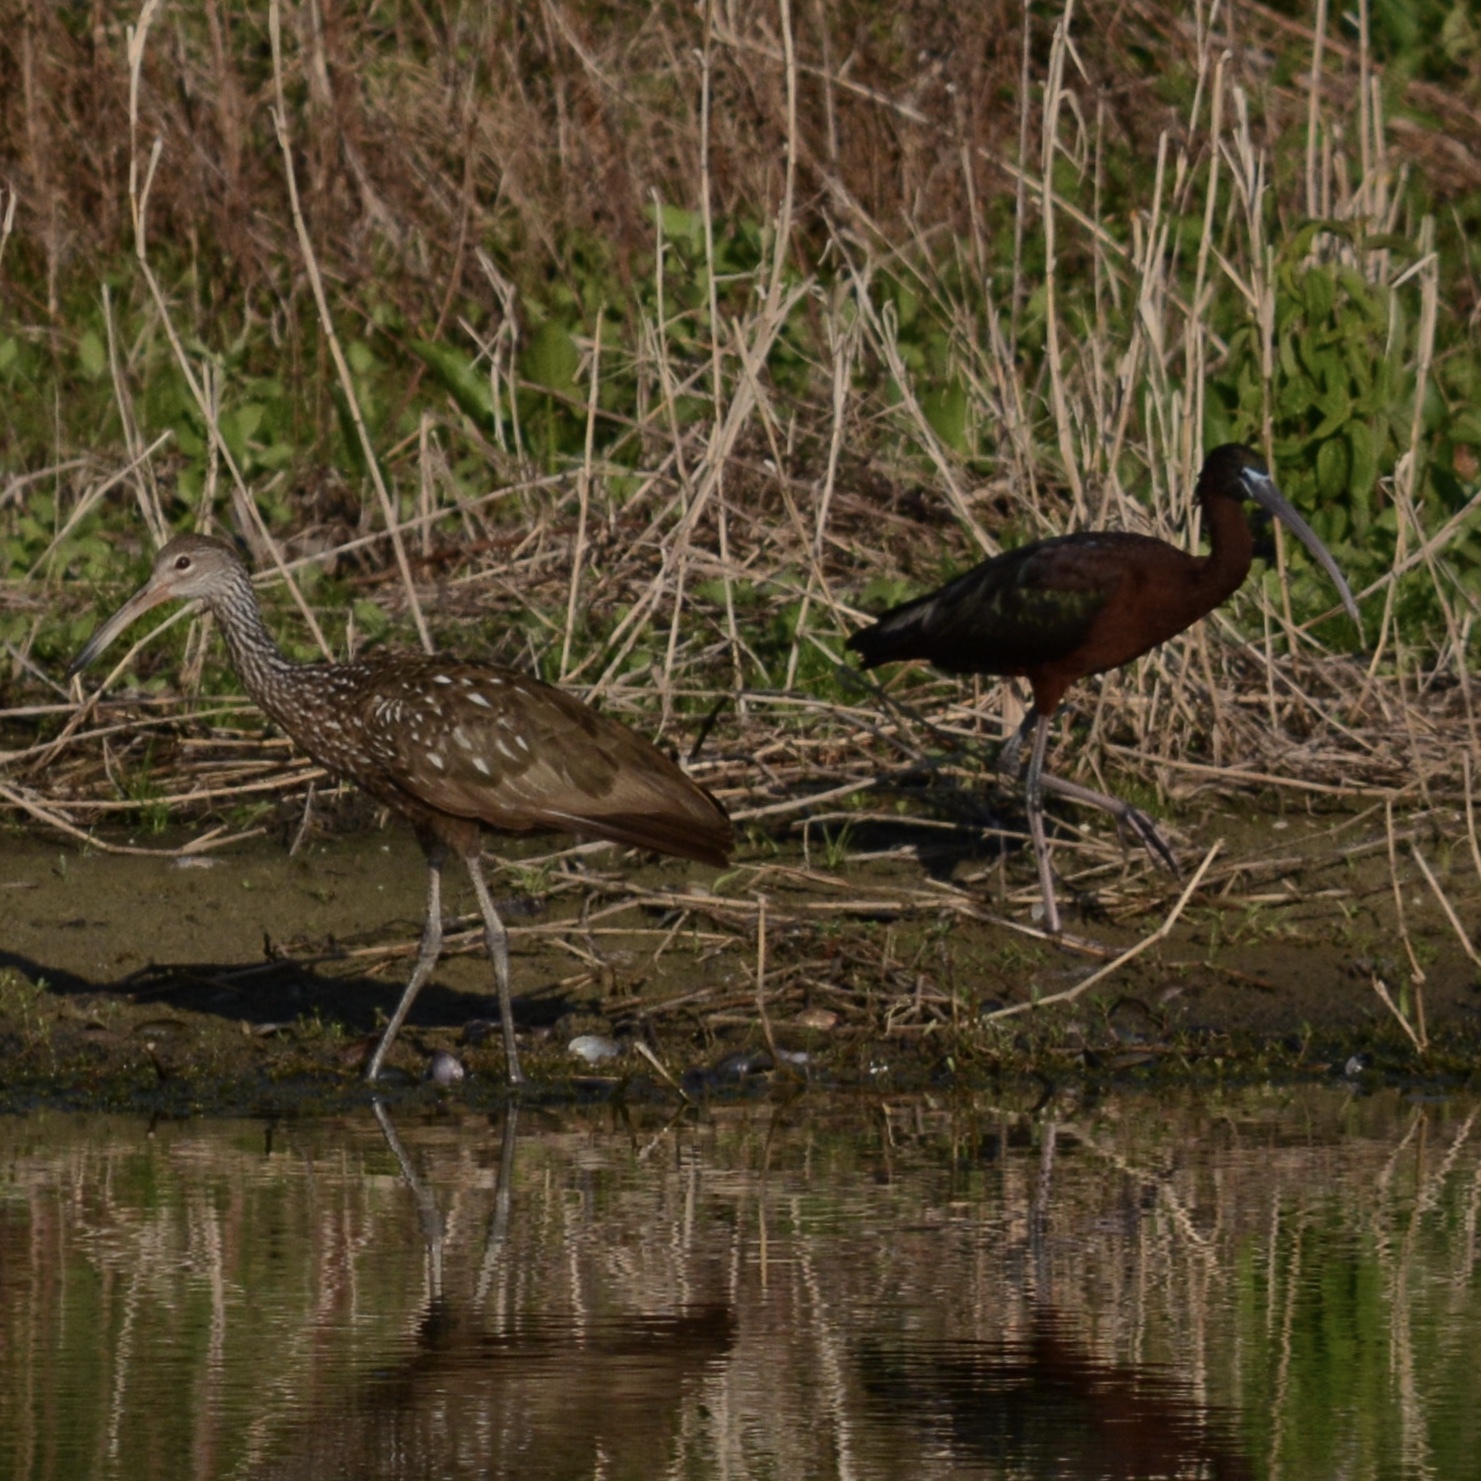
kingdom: Animalia
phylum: Chordata
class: Aves
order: Pelecaniformes
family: Threskiornithidae
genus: Plegadis
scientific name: Plegadis falcinellus
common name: Glossy ibis
